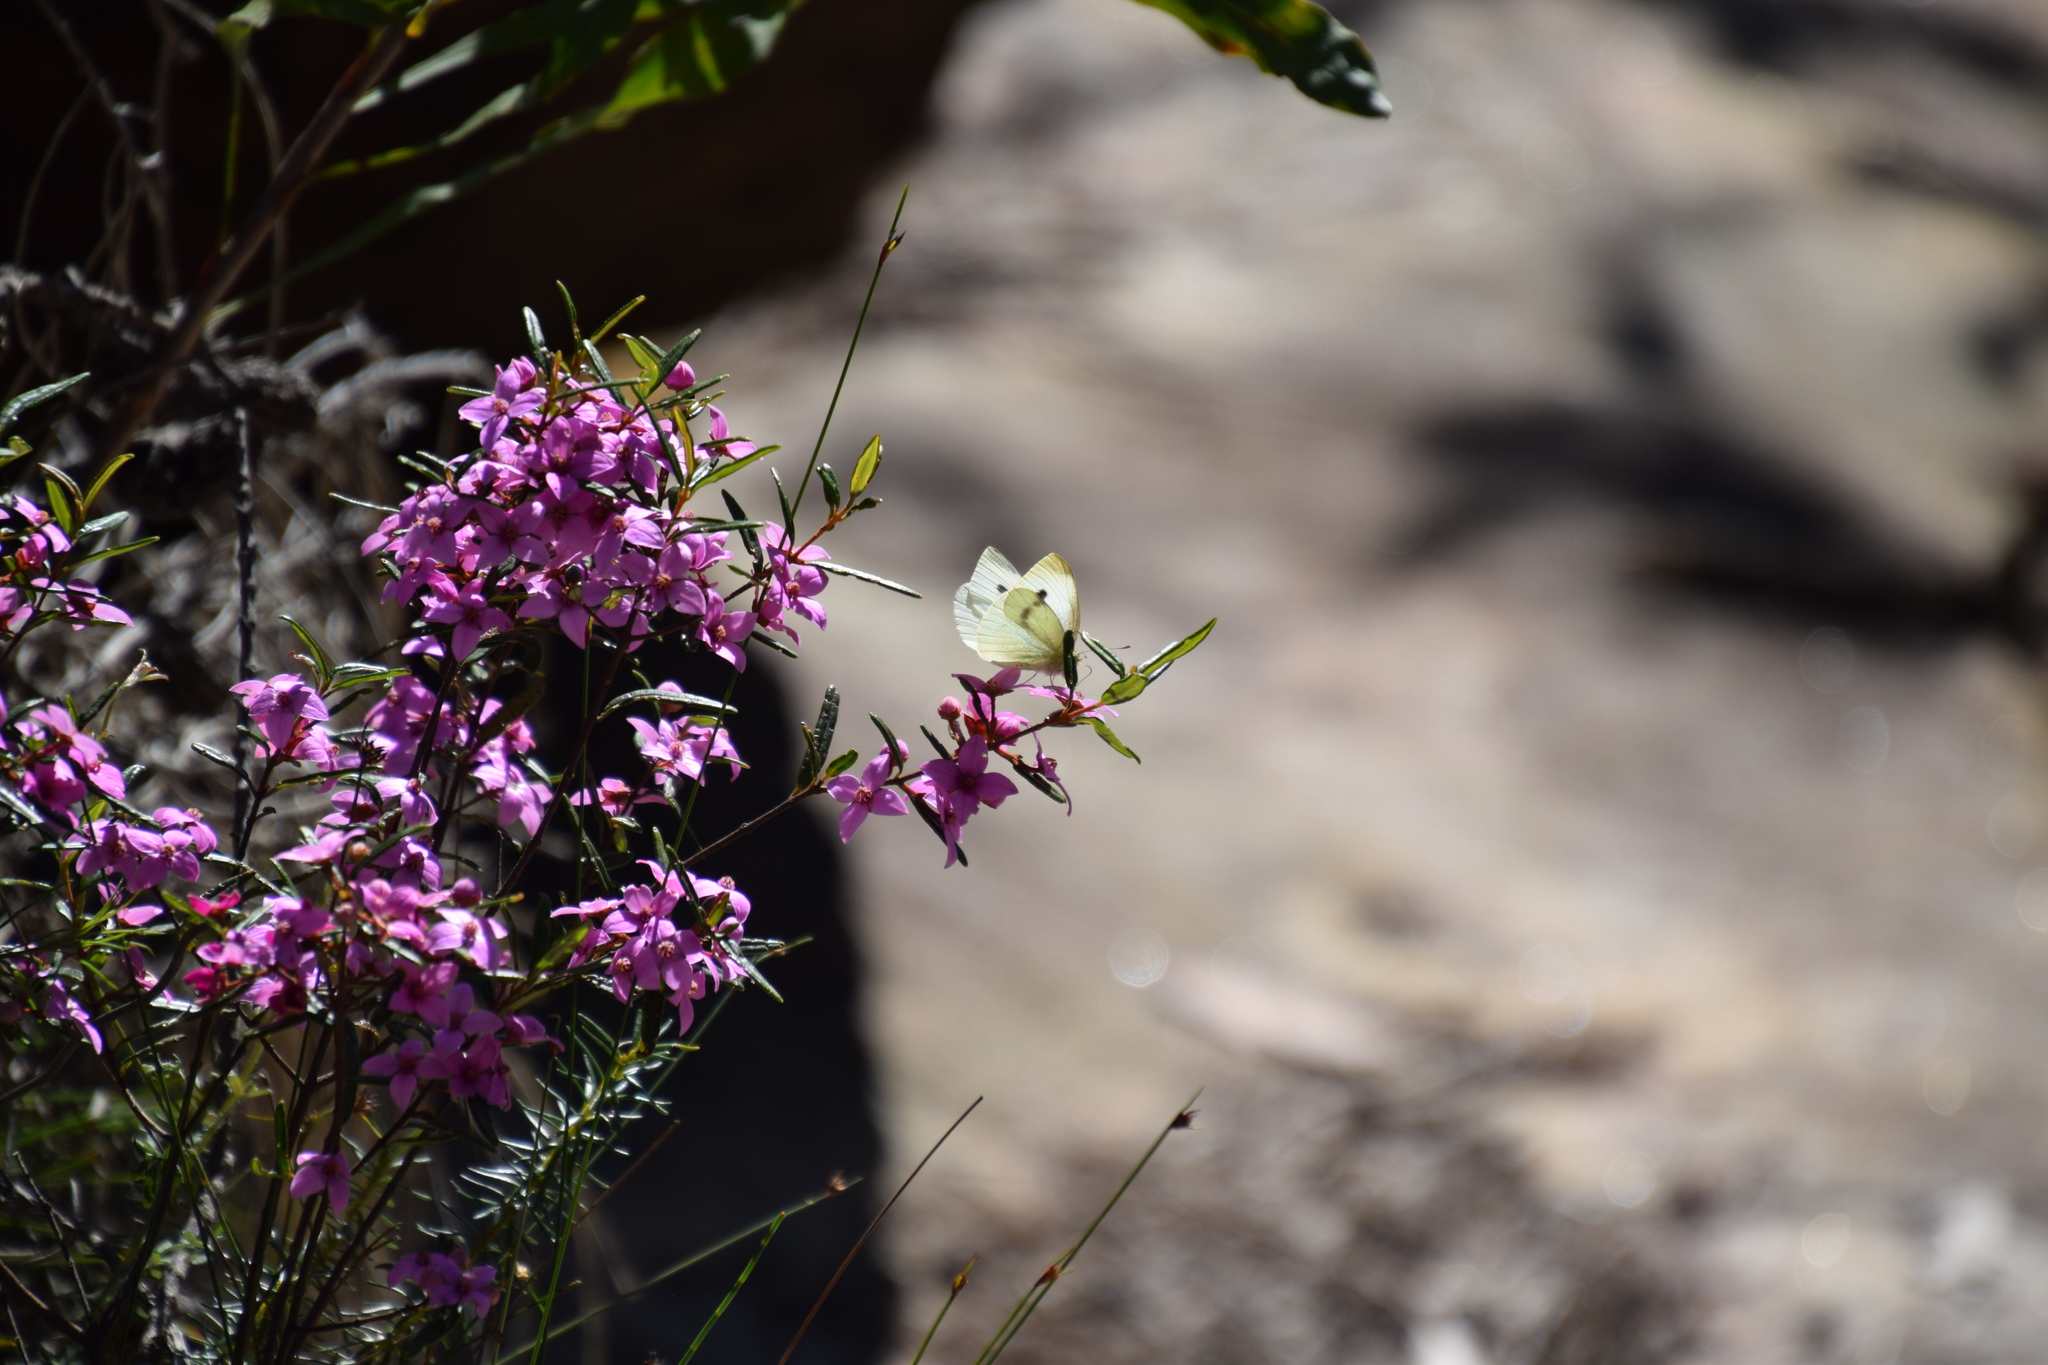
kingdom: Animalia
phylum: Arthropoda
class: Insecta
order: Lepidoptera
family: Pieridae
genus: Pieris
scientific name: Pieris rapae
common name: Small white
